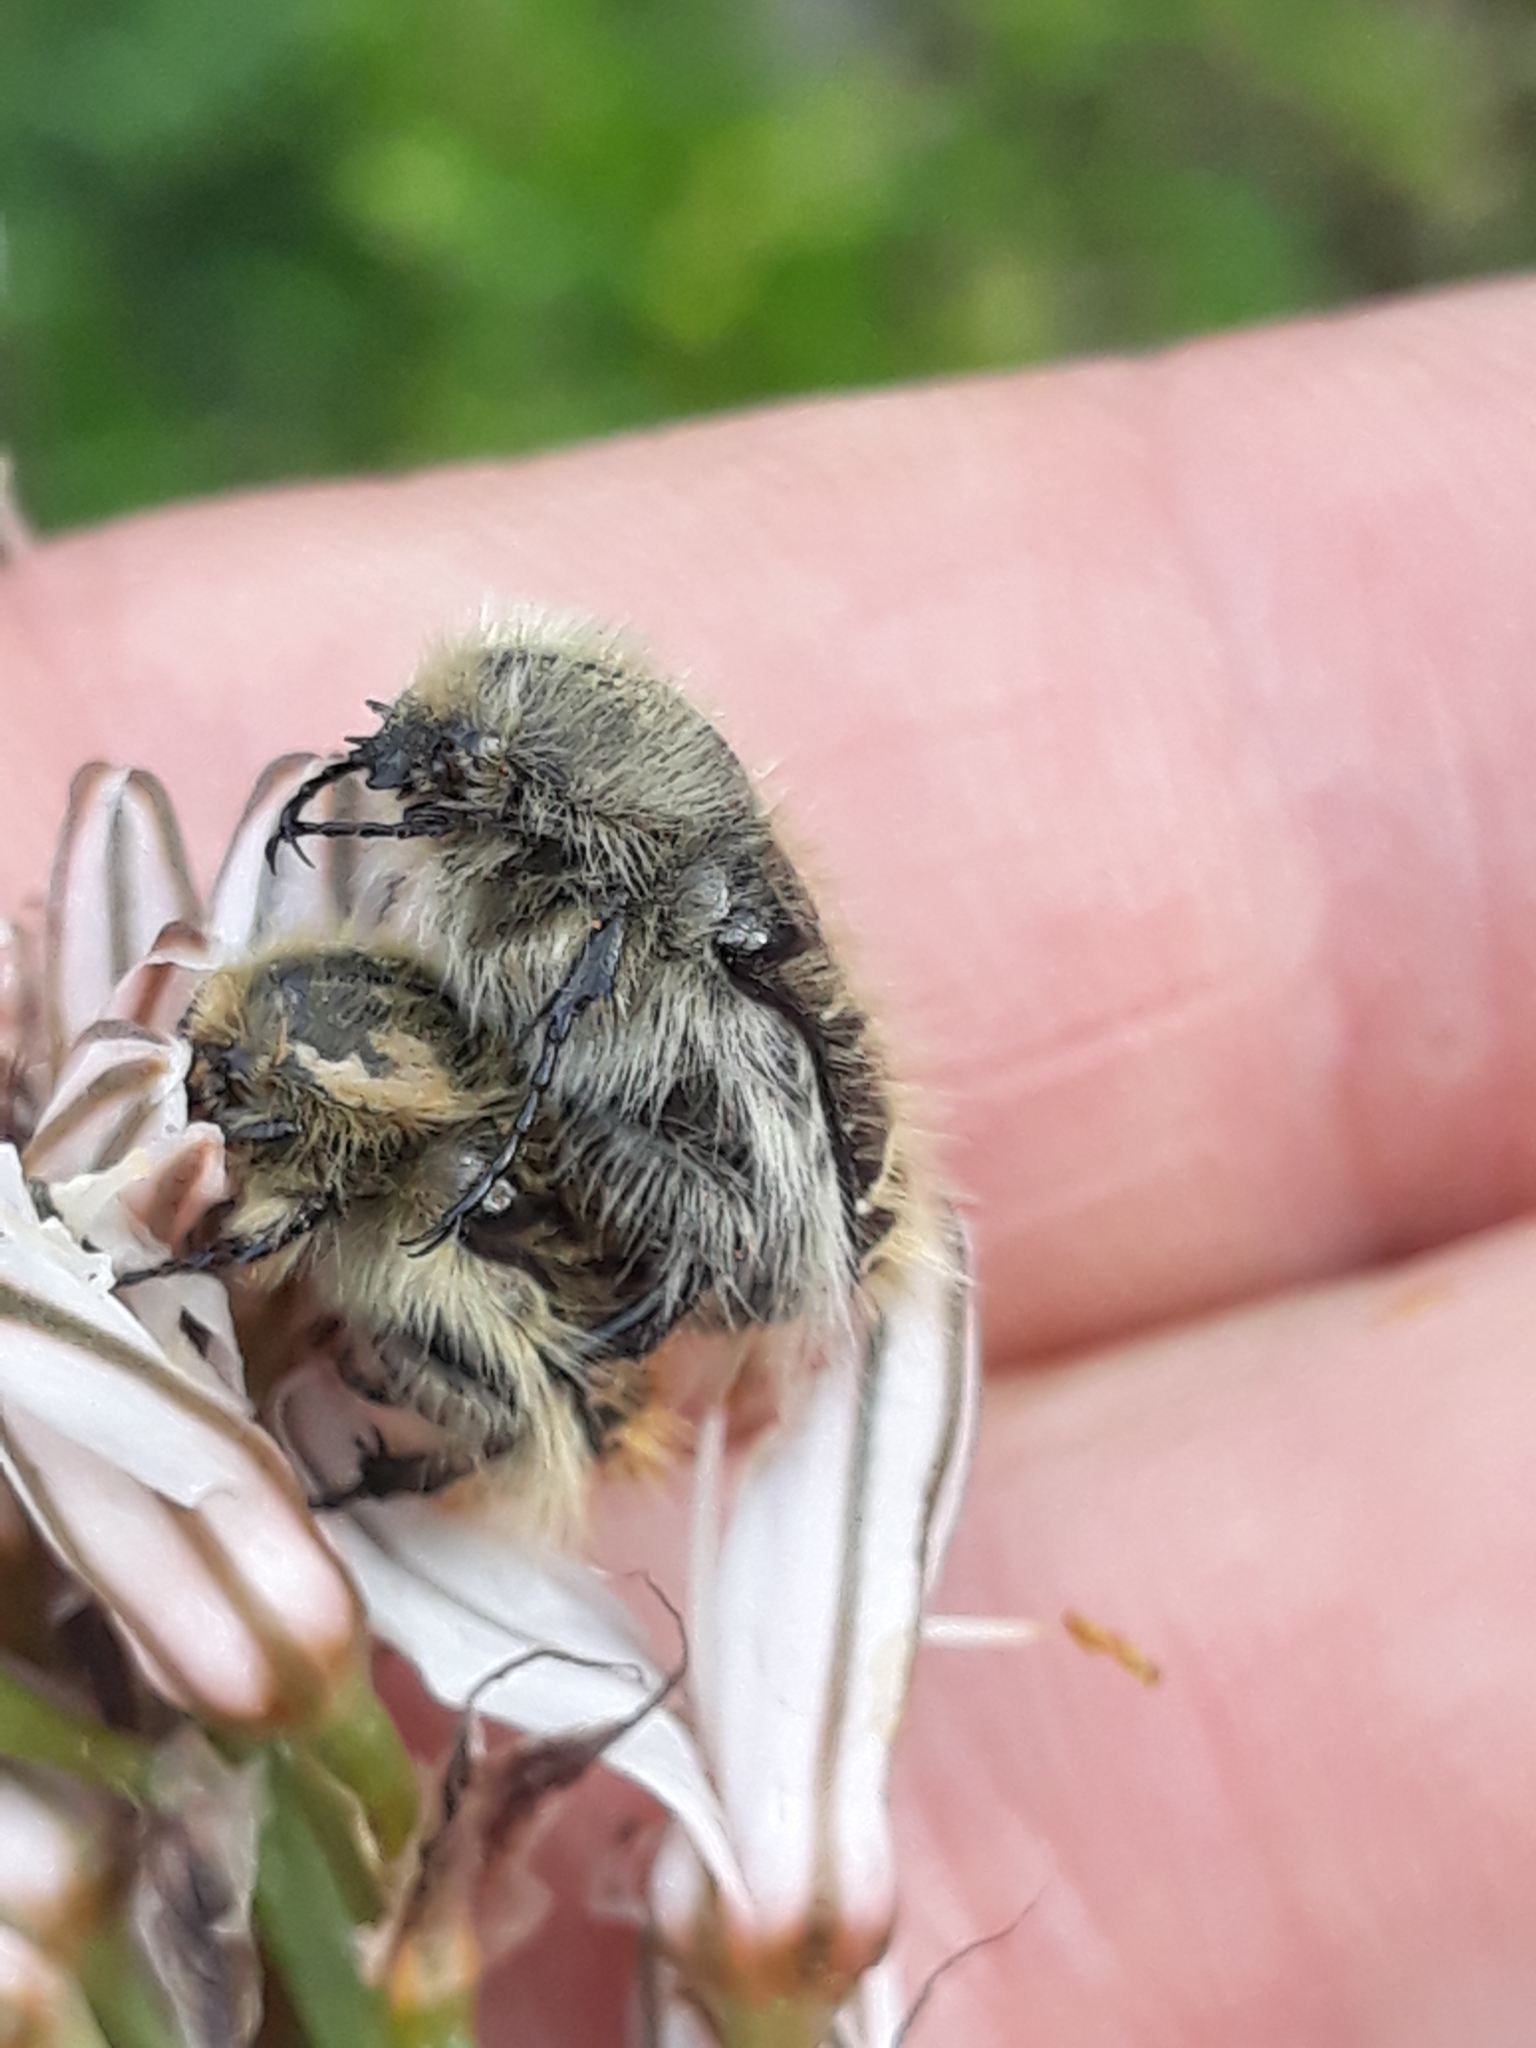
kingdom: Animalia
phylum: Arthropoda
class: Insecta
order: Coleoptera
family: Scarabaeidae
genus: Tropinota
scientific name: Tropinota squalida
